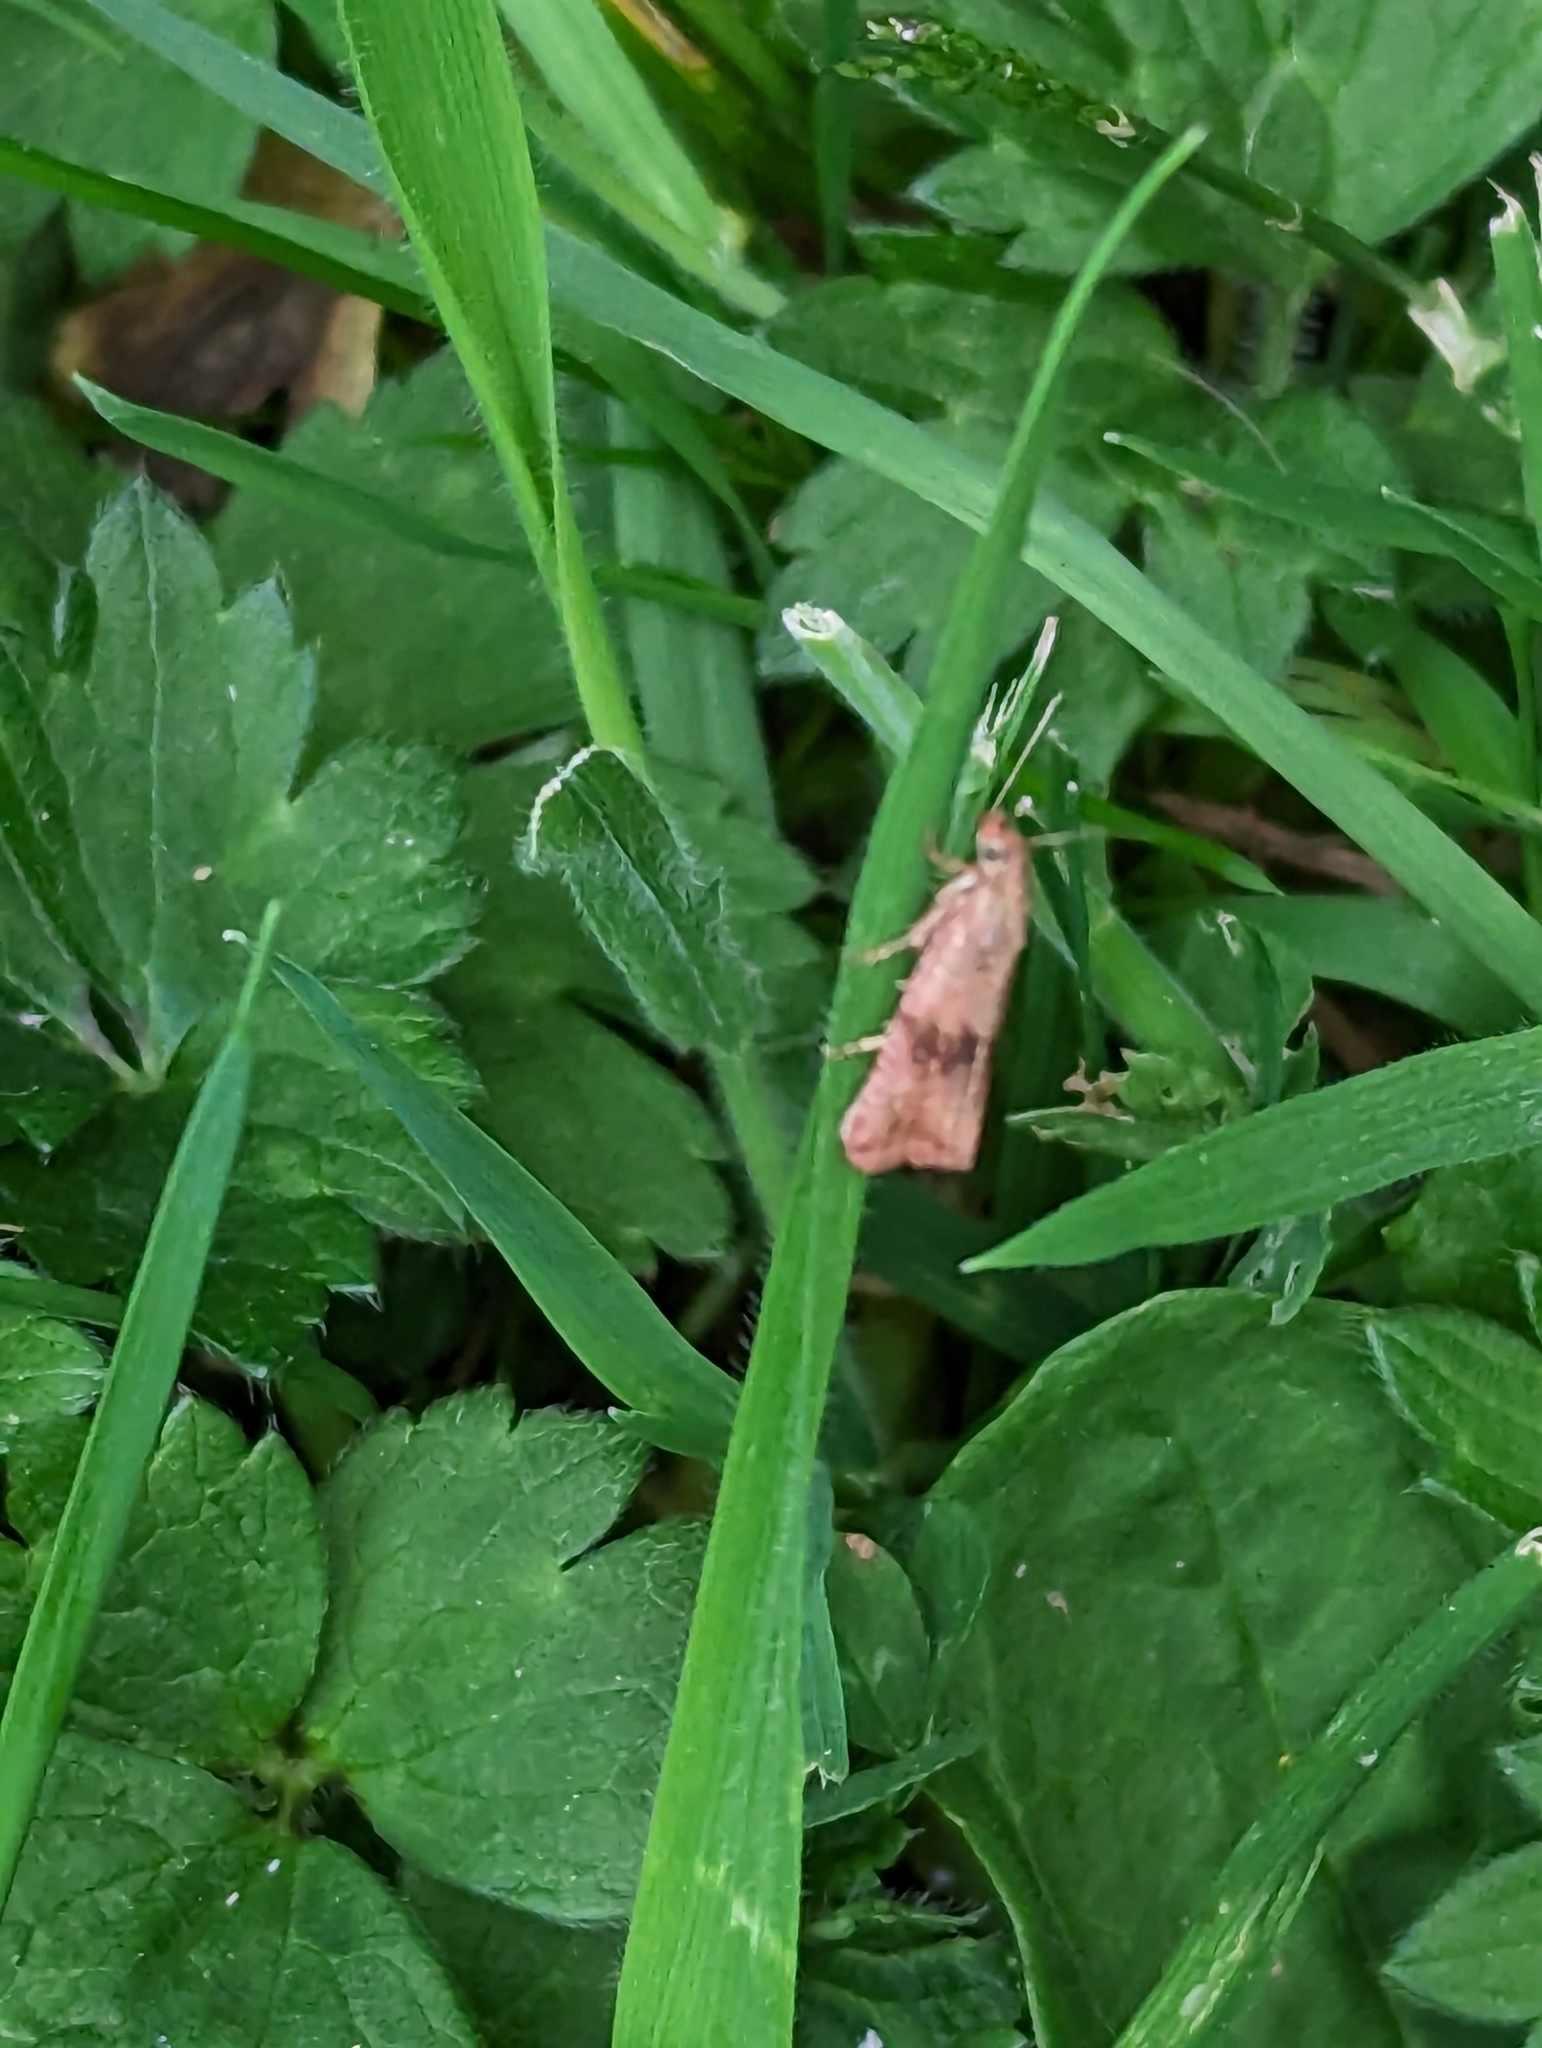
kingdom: Animalia
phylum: Arthropoda
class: Insecta
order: Lepidoptera
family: Tortricidae
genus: Celypha
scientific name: Celypha striana
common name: Barred marble
